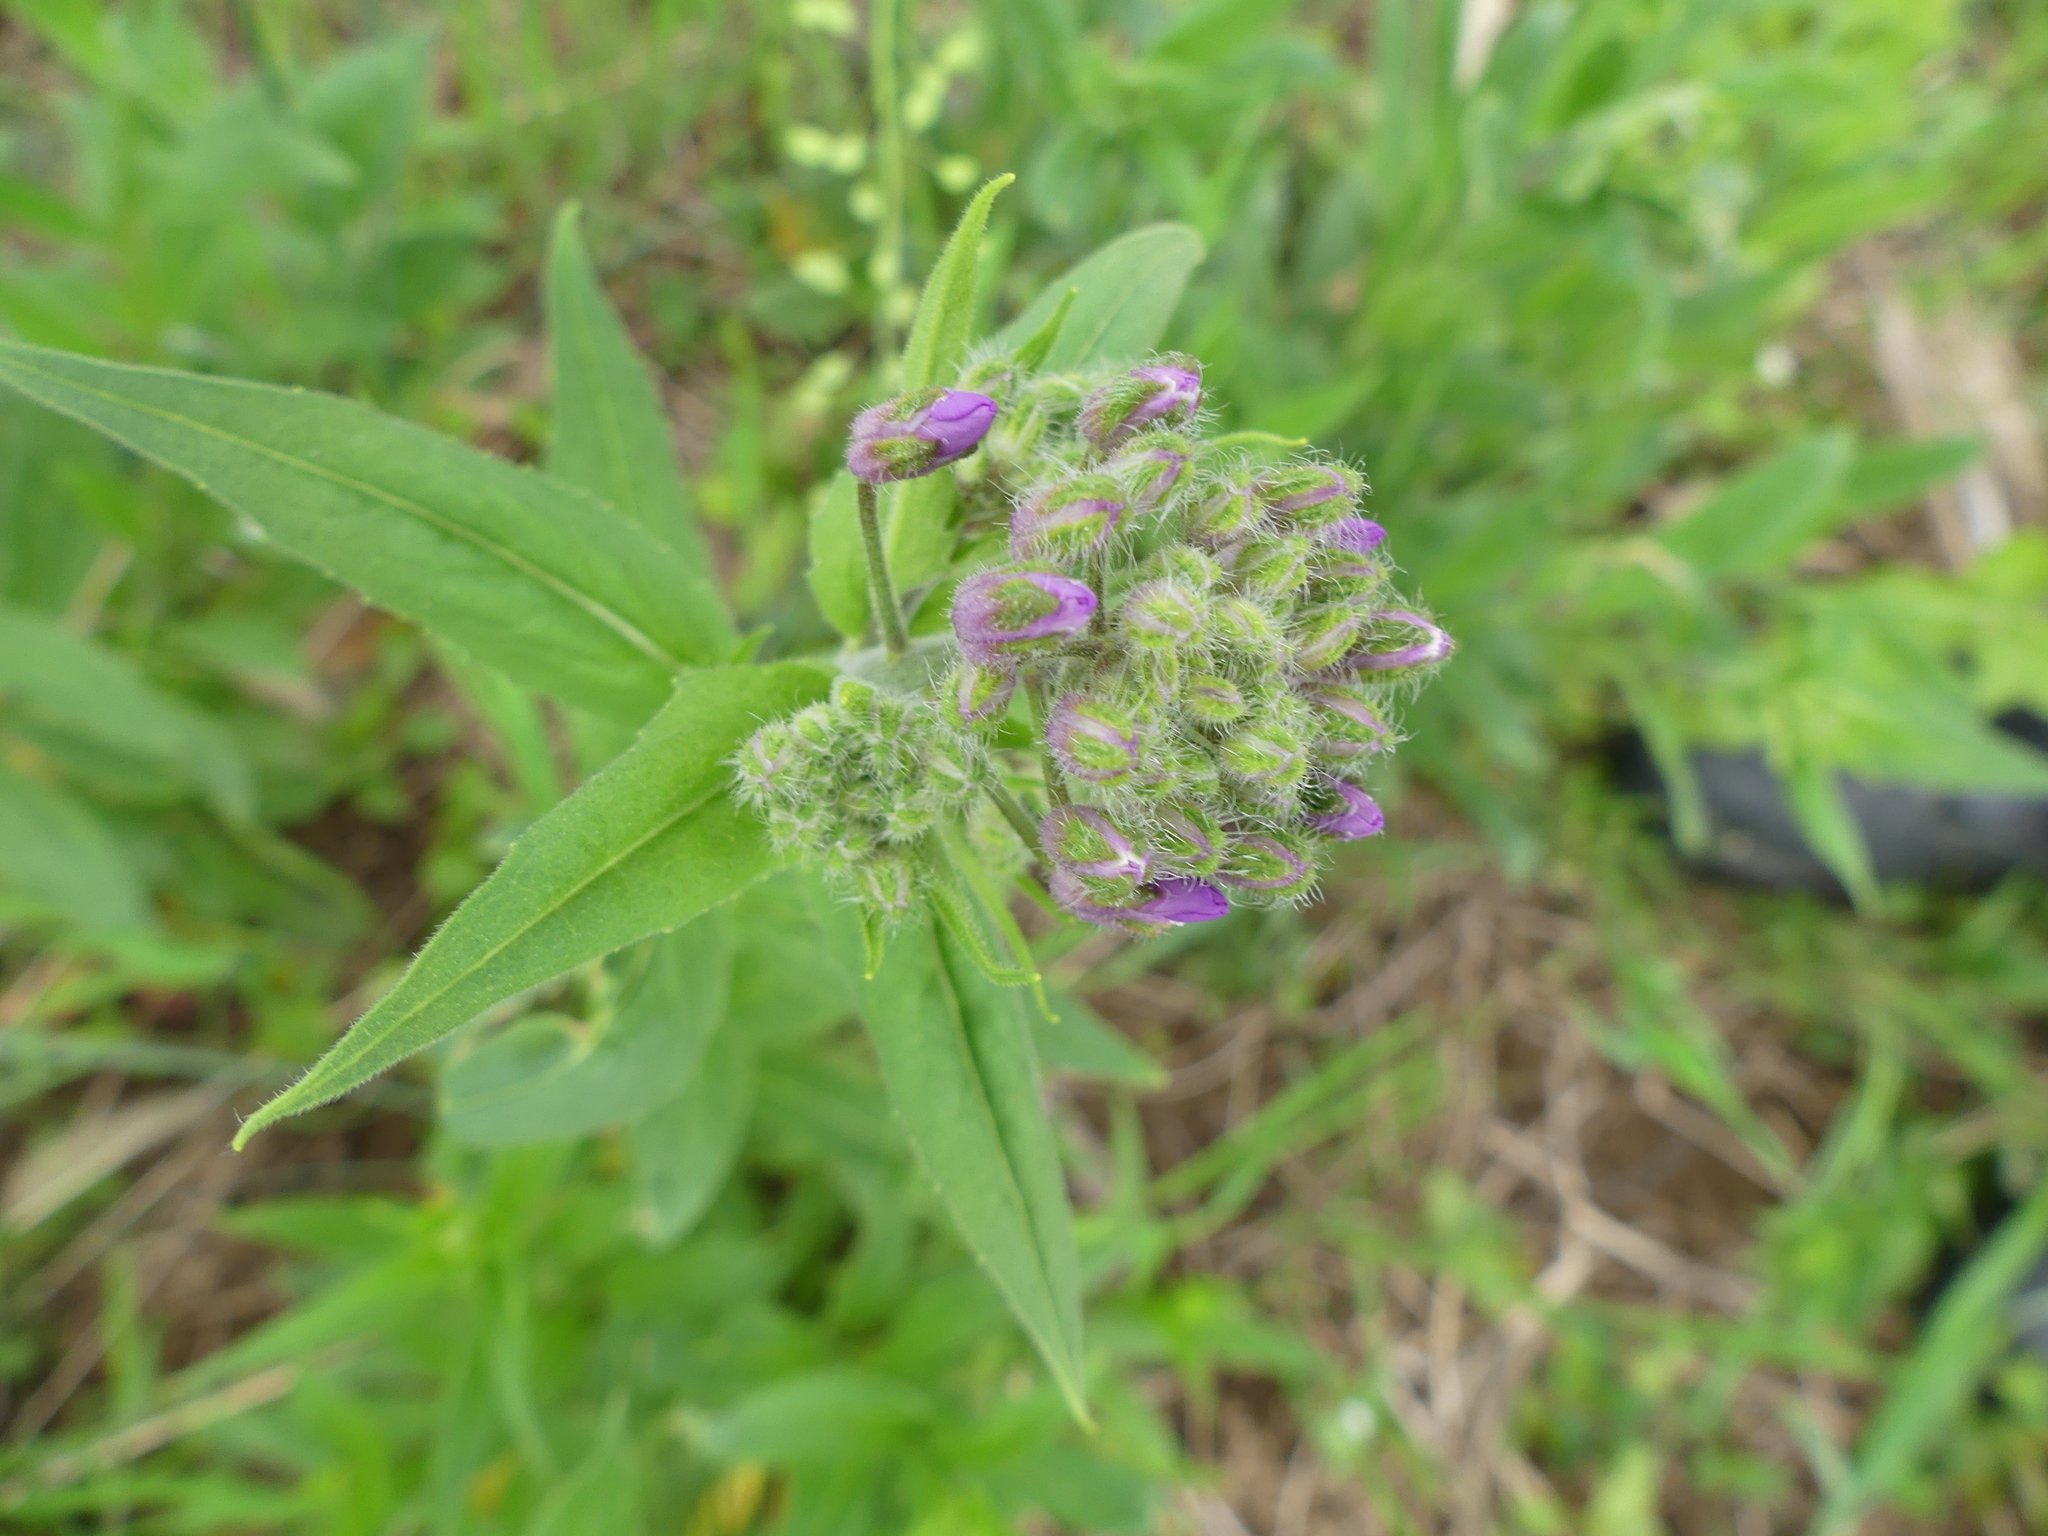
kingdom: Plantae
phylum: Tracheophyta
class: Magnoliopsida
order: Brassicales
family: Brassicaceae
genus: Hesperis
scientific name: Hesperis matronalis
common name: Dame's-violet
